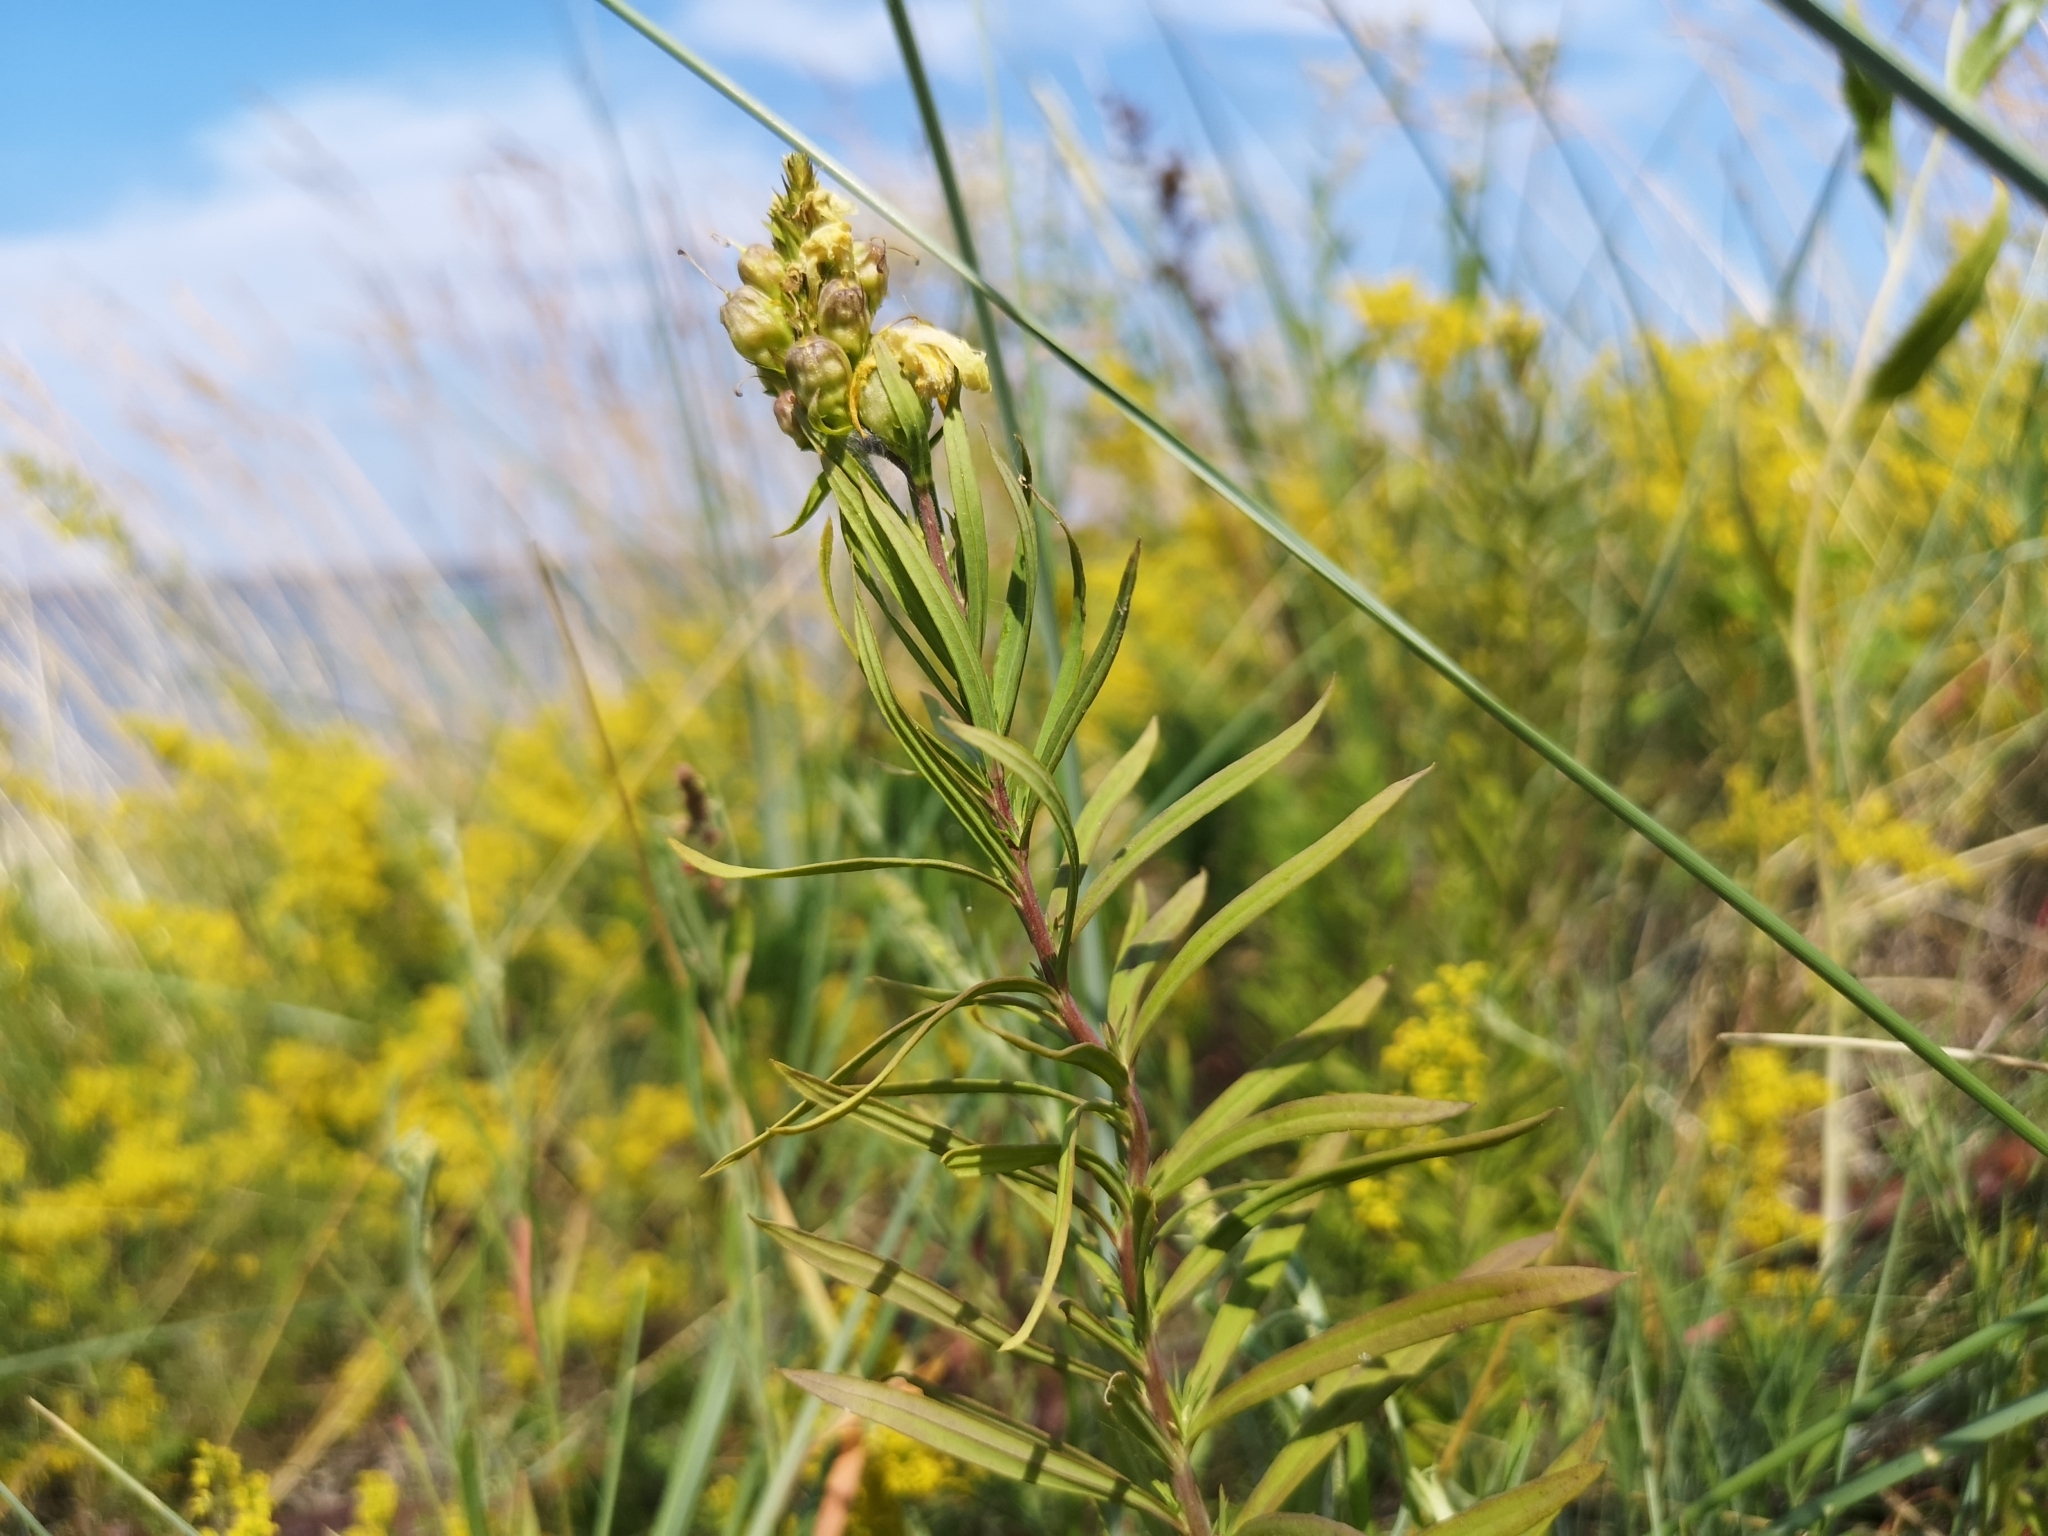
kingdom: Plantae
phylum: Tracheophyta
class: Magnoliopsida
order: Lamiales
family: Plantaginaceae
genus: Linaria
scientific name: Linaria vulgaris
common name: Butter and eggs
